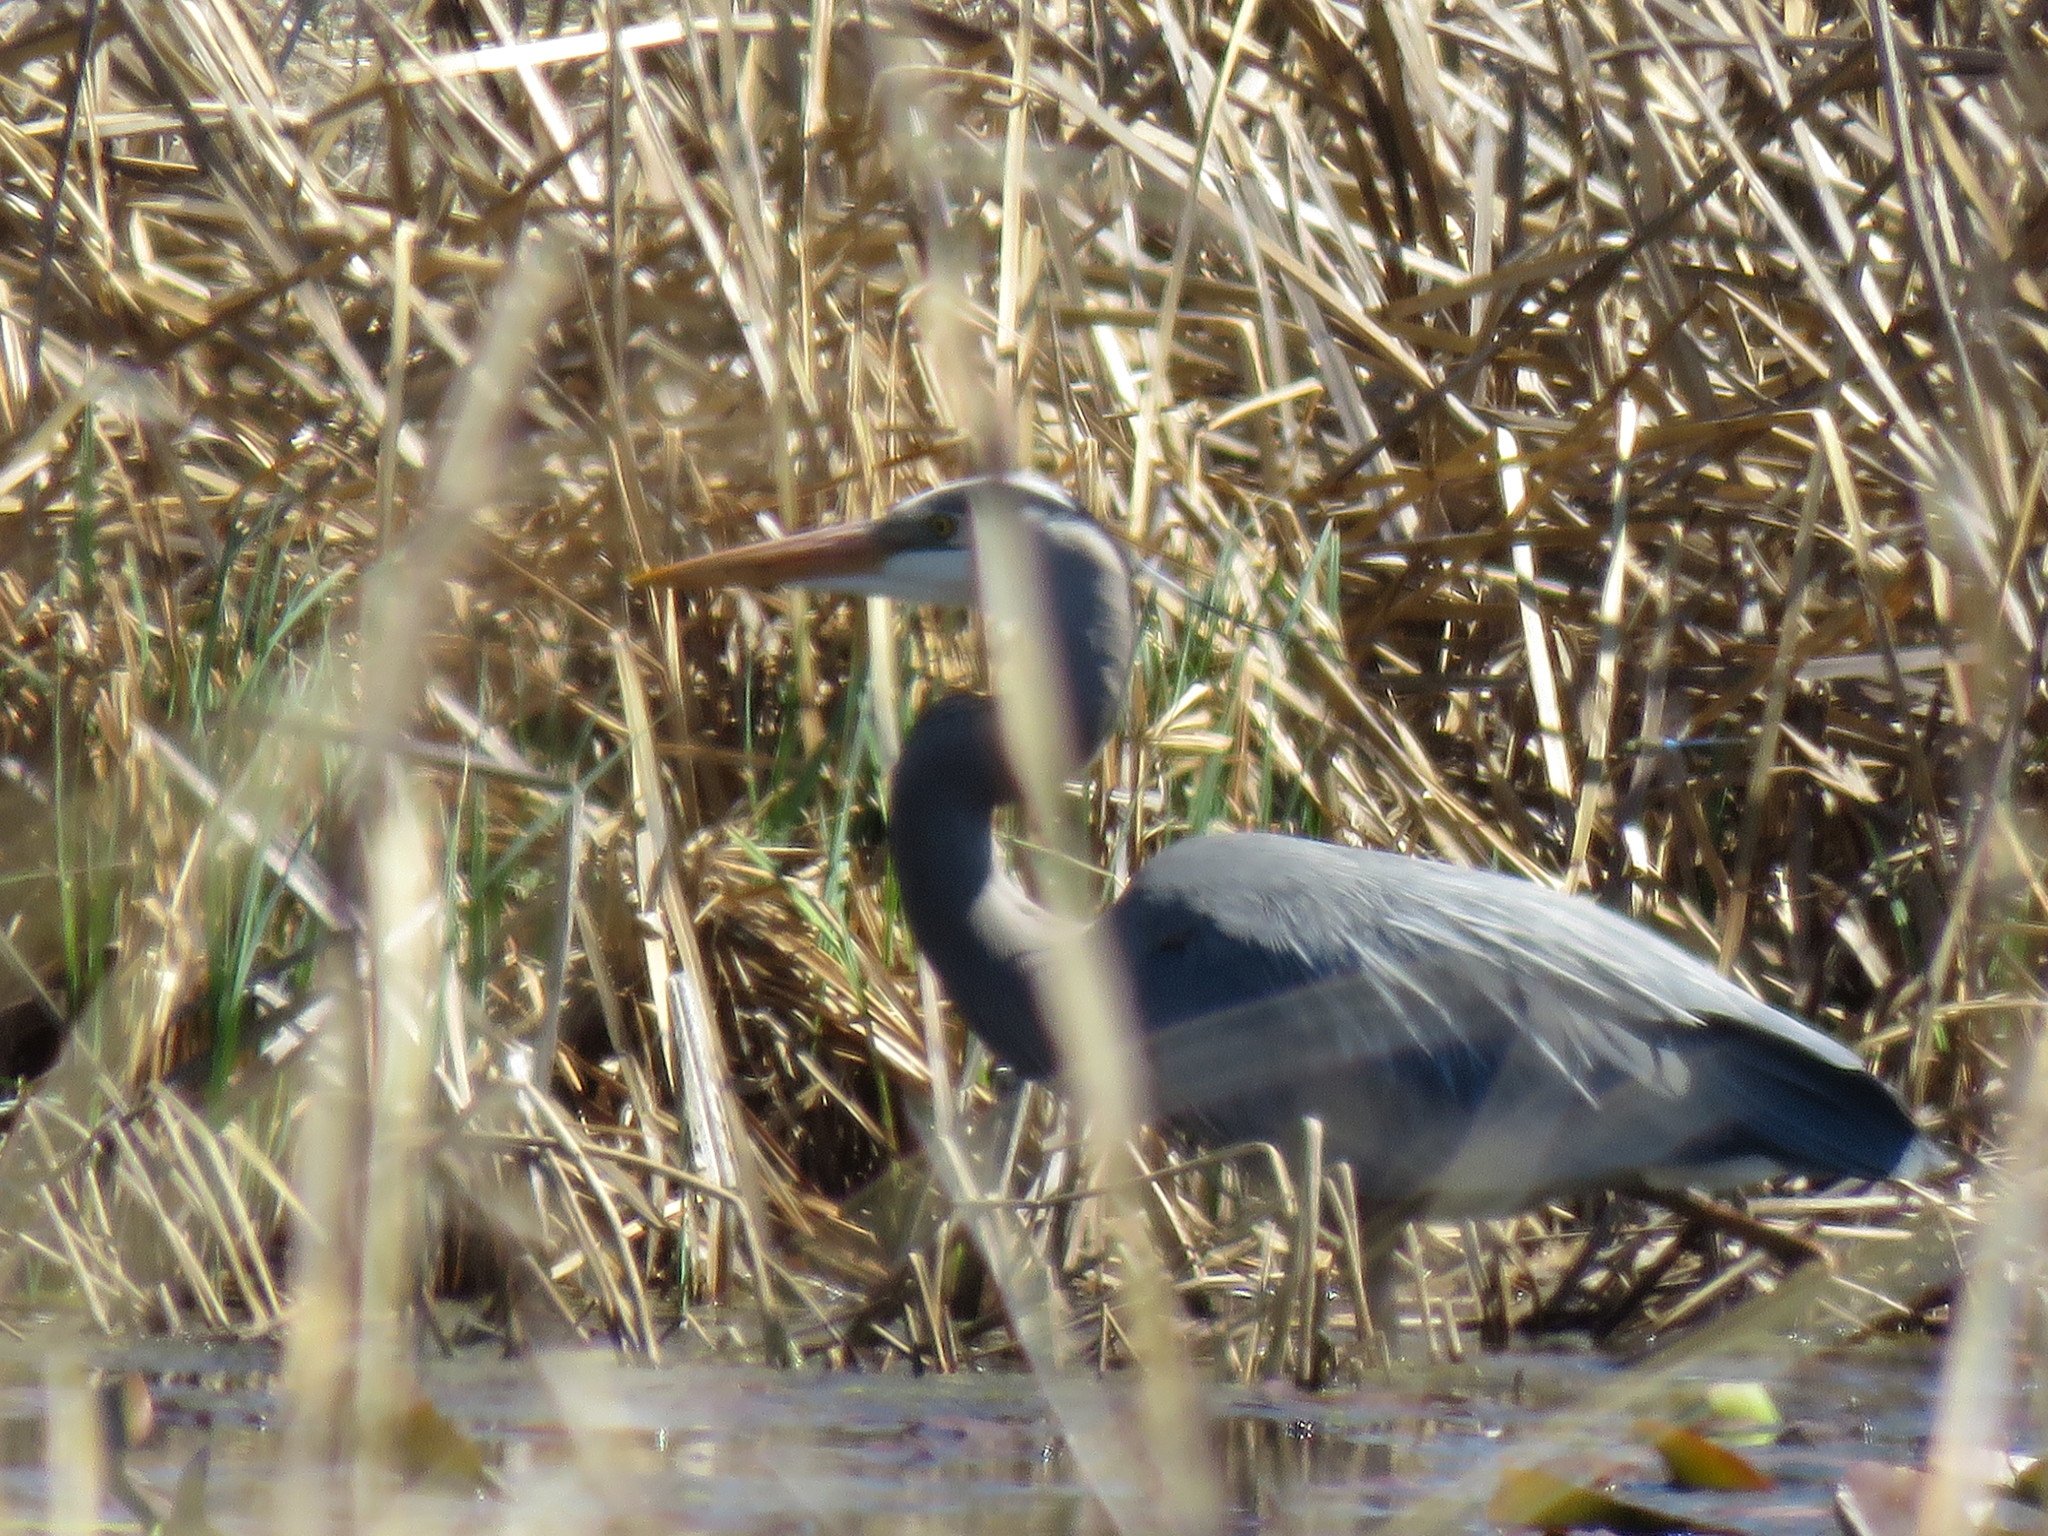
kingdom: Animalia
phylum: Chordata
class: Aves
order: Pelecaniformes
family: Ardeidae
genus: Ardea
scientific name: Ardea herodias
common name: Great blue heron
